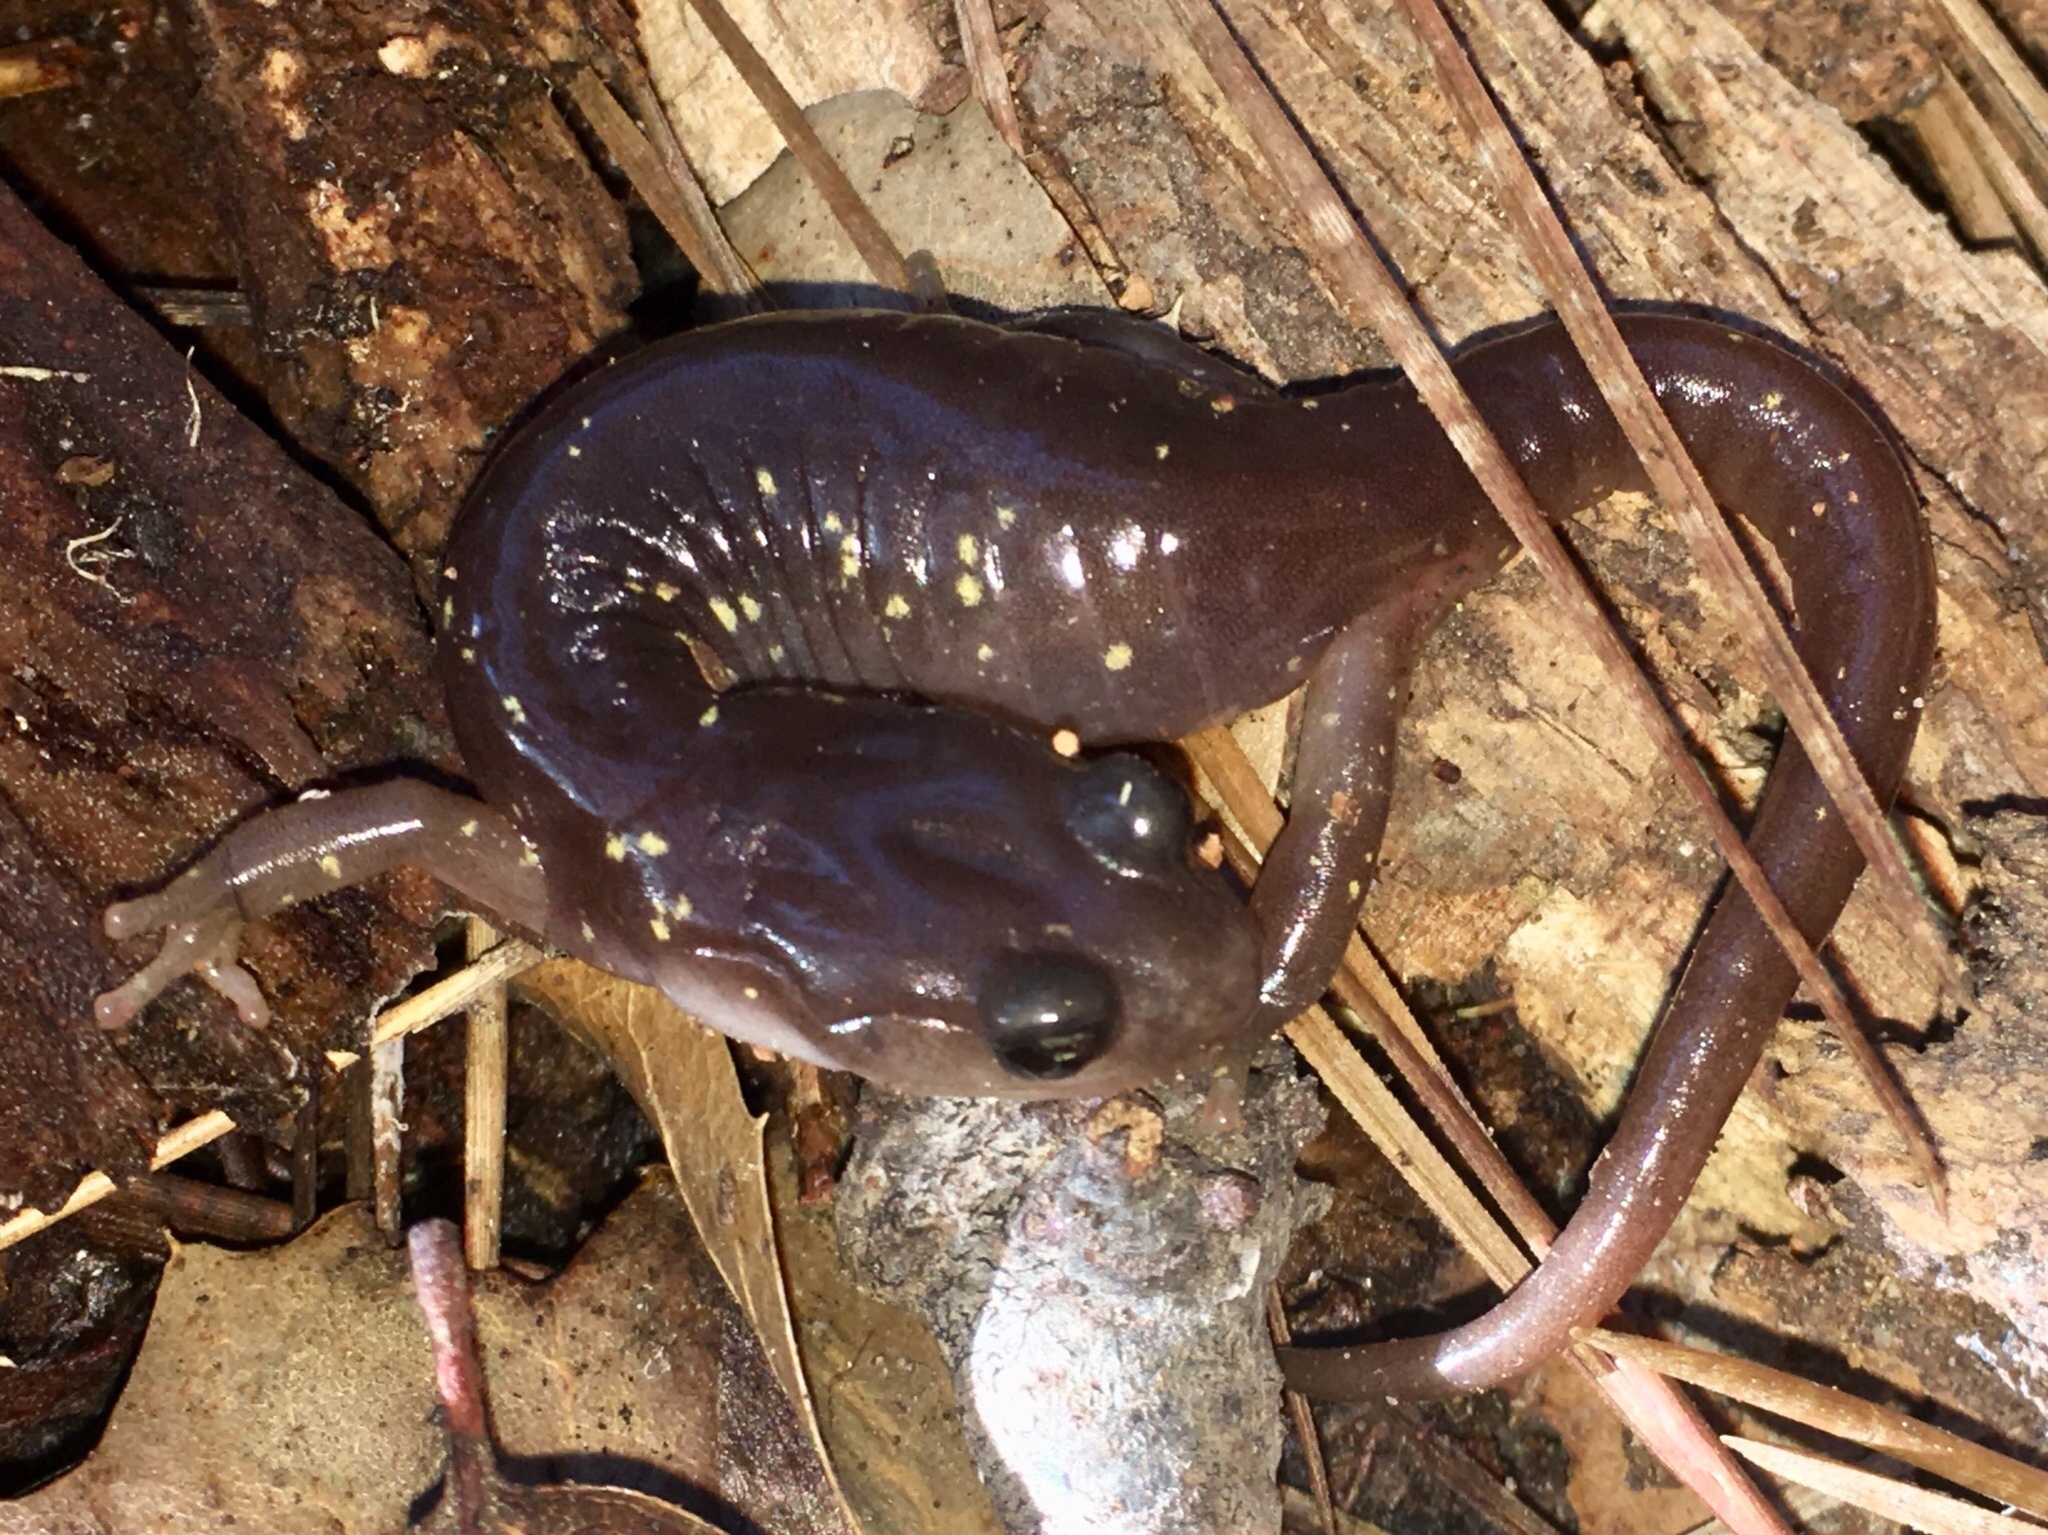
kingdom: Animalia
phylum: Chordata
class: Amphibia
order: Caudata
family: Plethodontidae
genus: Aneides
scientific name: Aneides lugubris
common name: Arboreal salamander
